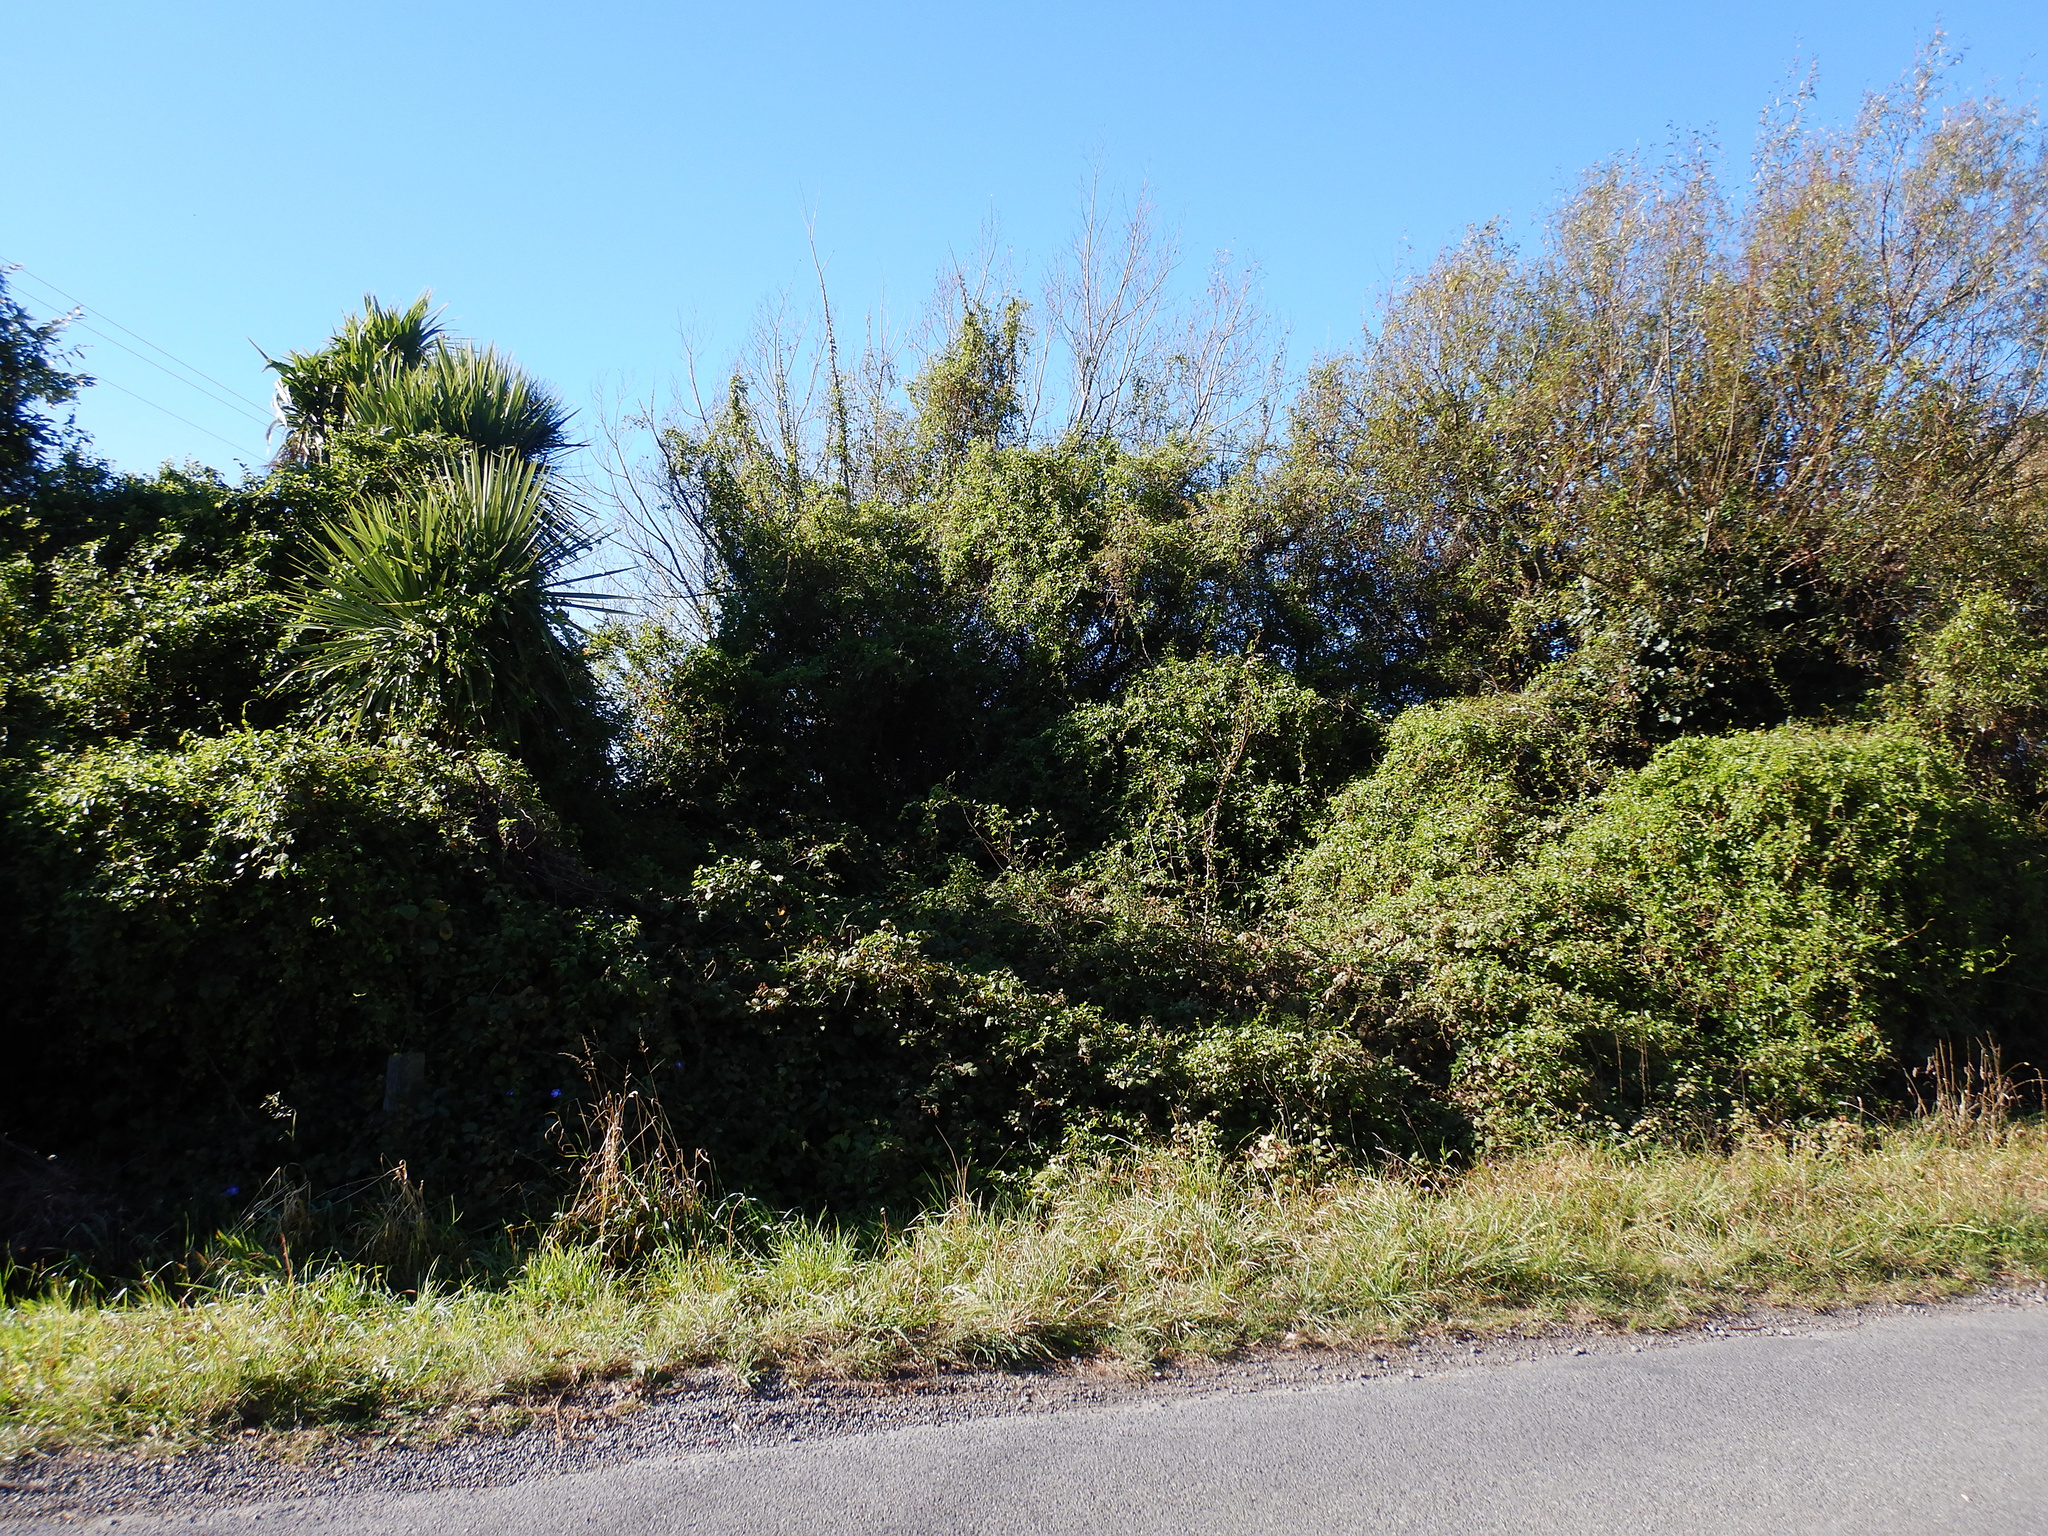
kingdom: Plantae
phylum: Tracheophyta
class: Magnoliopsida
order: Caryophyllales
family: Polygonaceae
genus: Muehlenbeckia
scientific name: Muehlenbeckia australis
